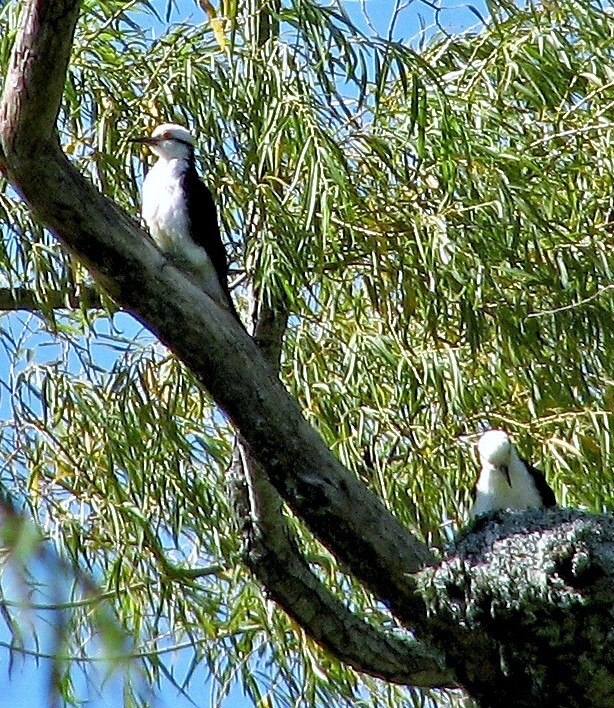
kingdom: Animalia
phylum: Chordata
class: Aves
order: Piciformes
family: Picidae
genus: Melanerpes
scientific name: Melanerpes candidus
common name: White woodpecker
